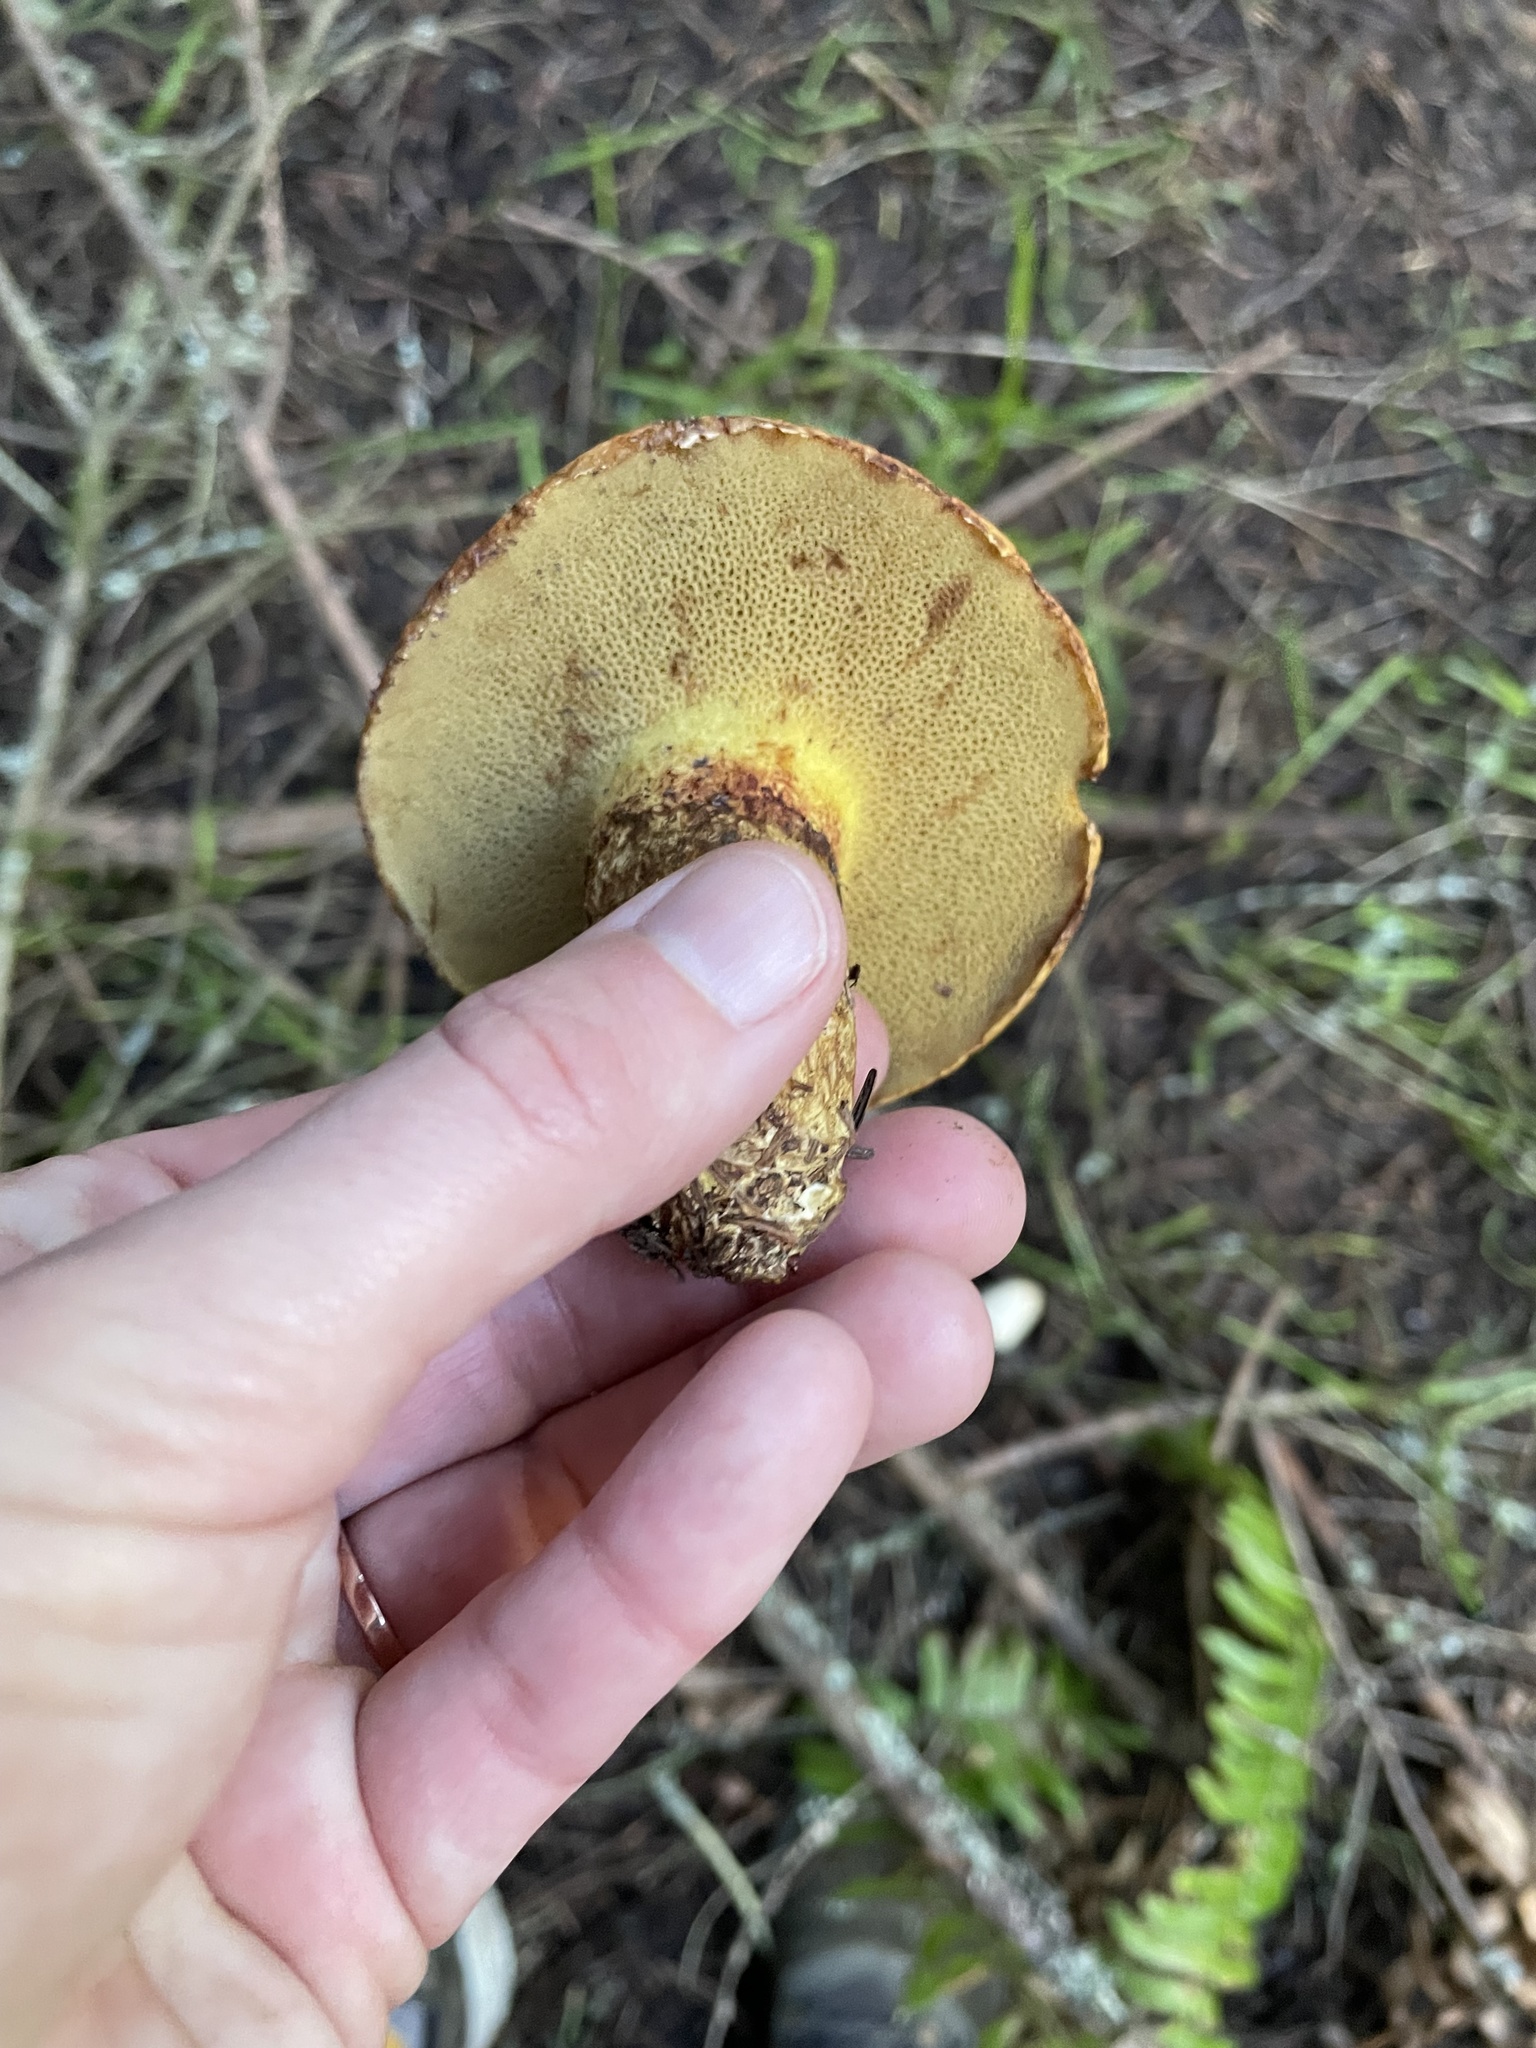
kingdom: Fungi
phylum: Basidiomycota
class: Agaricomycetes
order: Boletales
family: Suillaceae
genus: Suillus
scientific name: Suillus ponderosus
